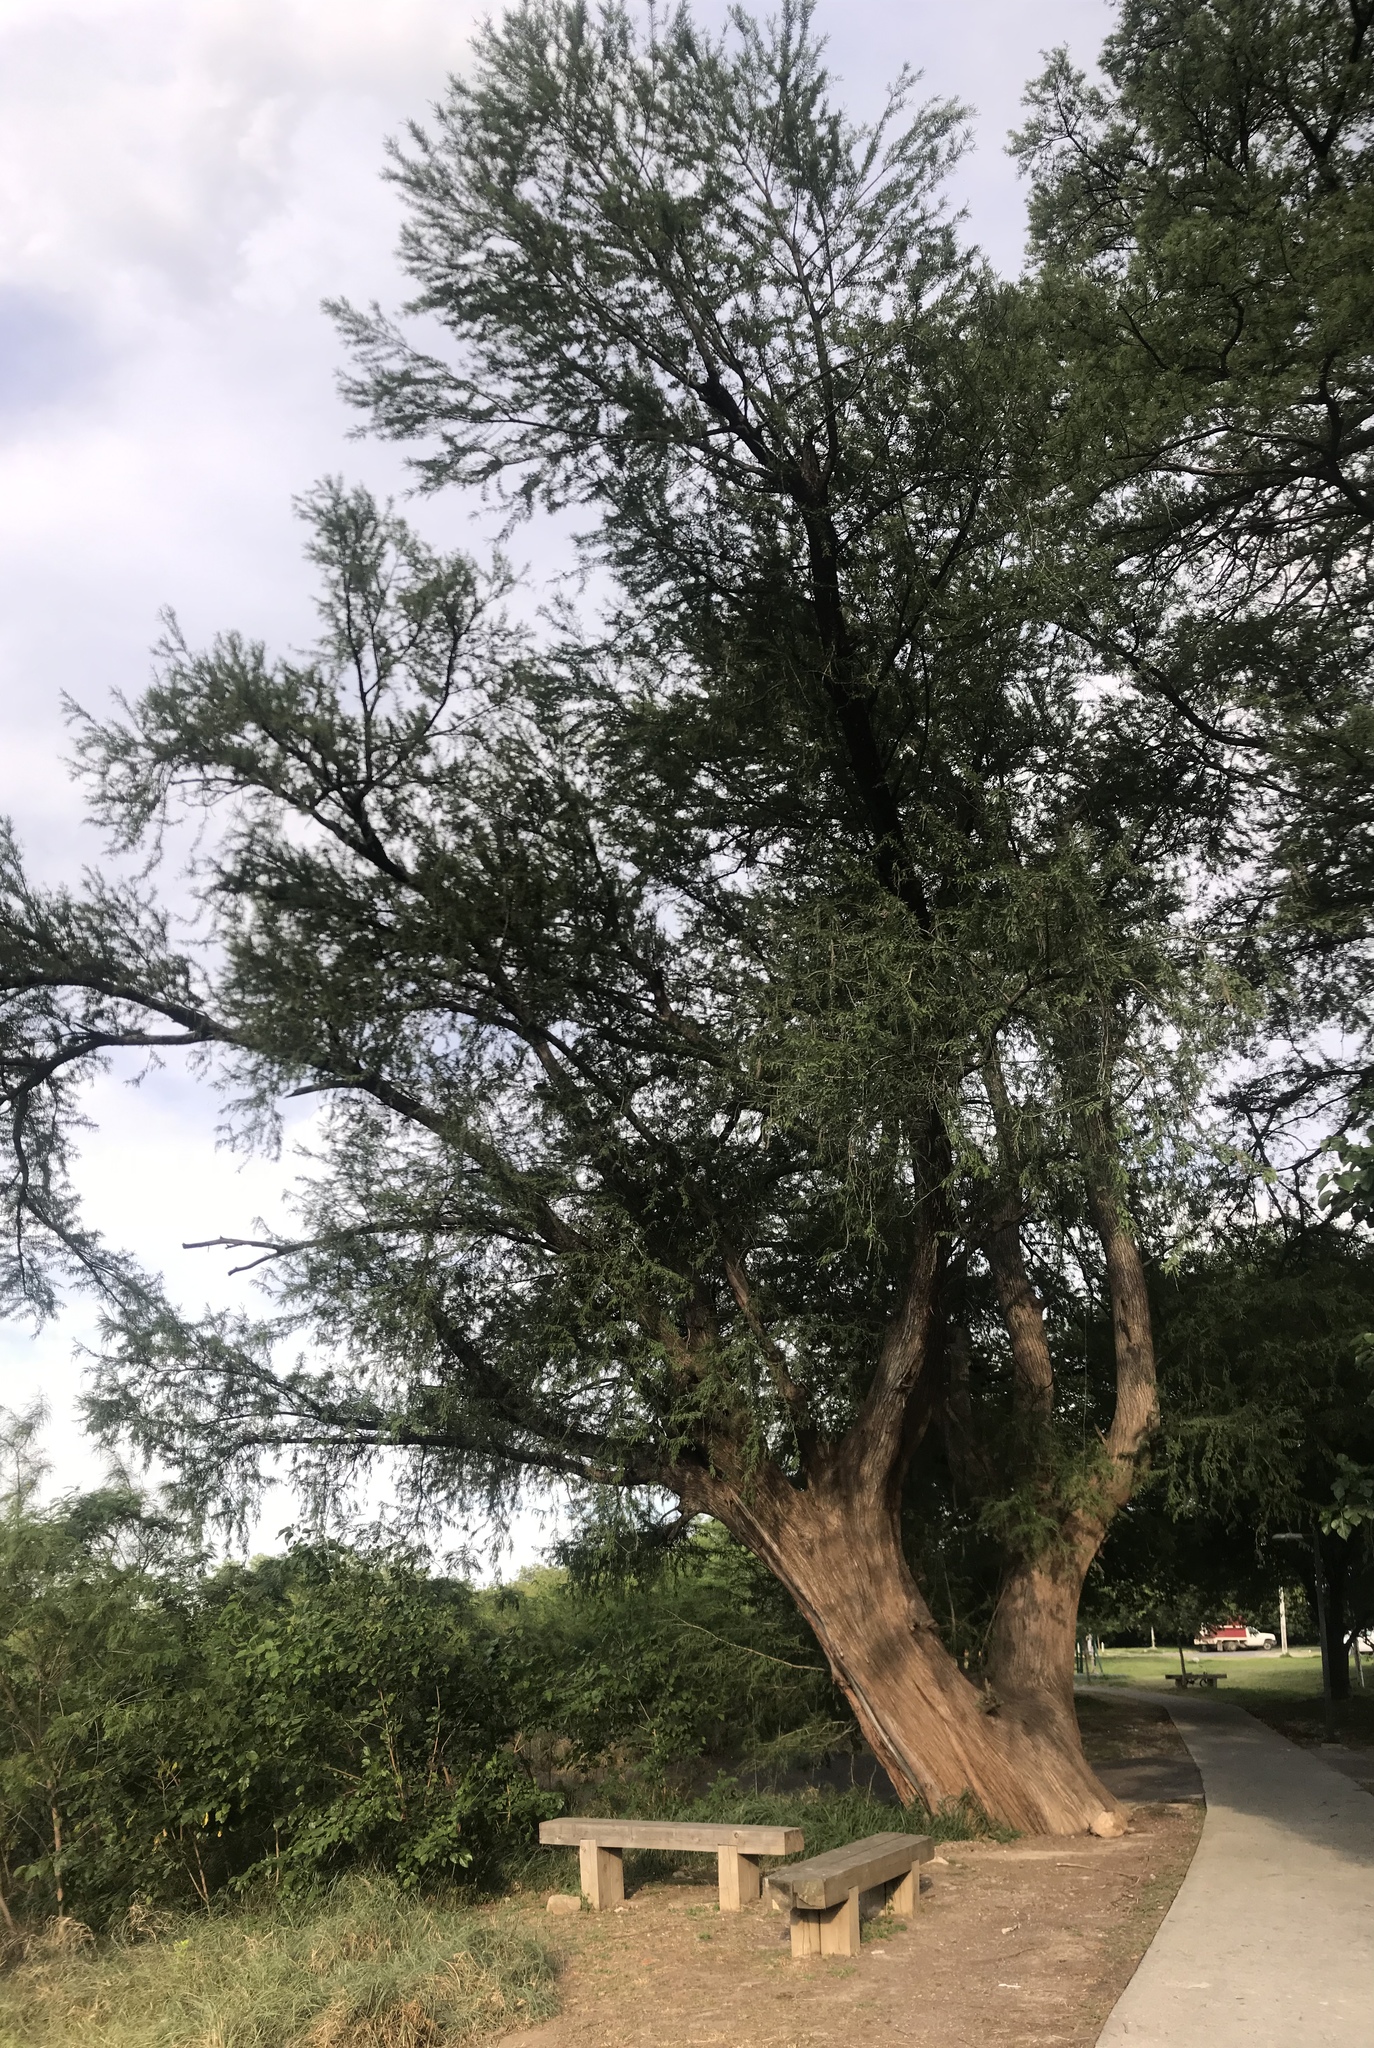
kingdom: Plantae
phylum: Tracheophyta
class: Pinopsida
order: Pinales
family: Cupressaceae
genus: Taxodium
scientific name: Taxodium mucronatum
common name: Montezume bald cypress
